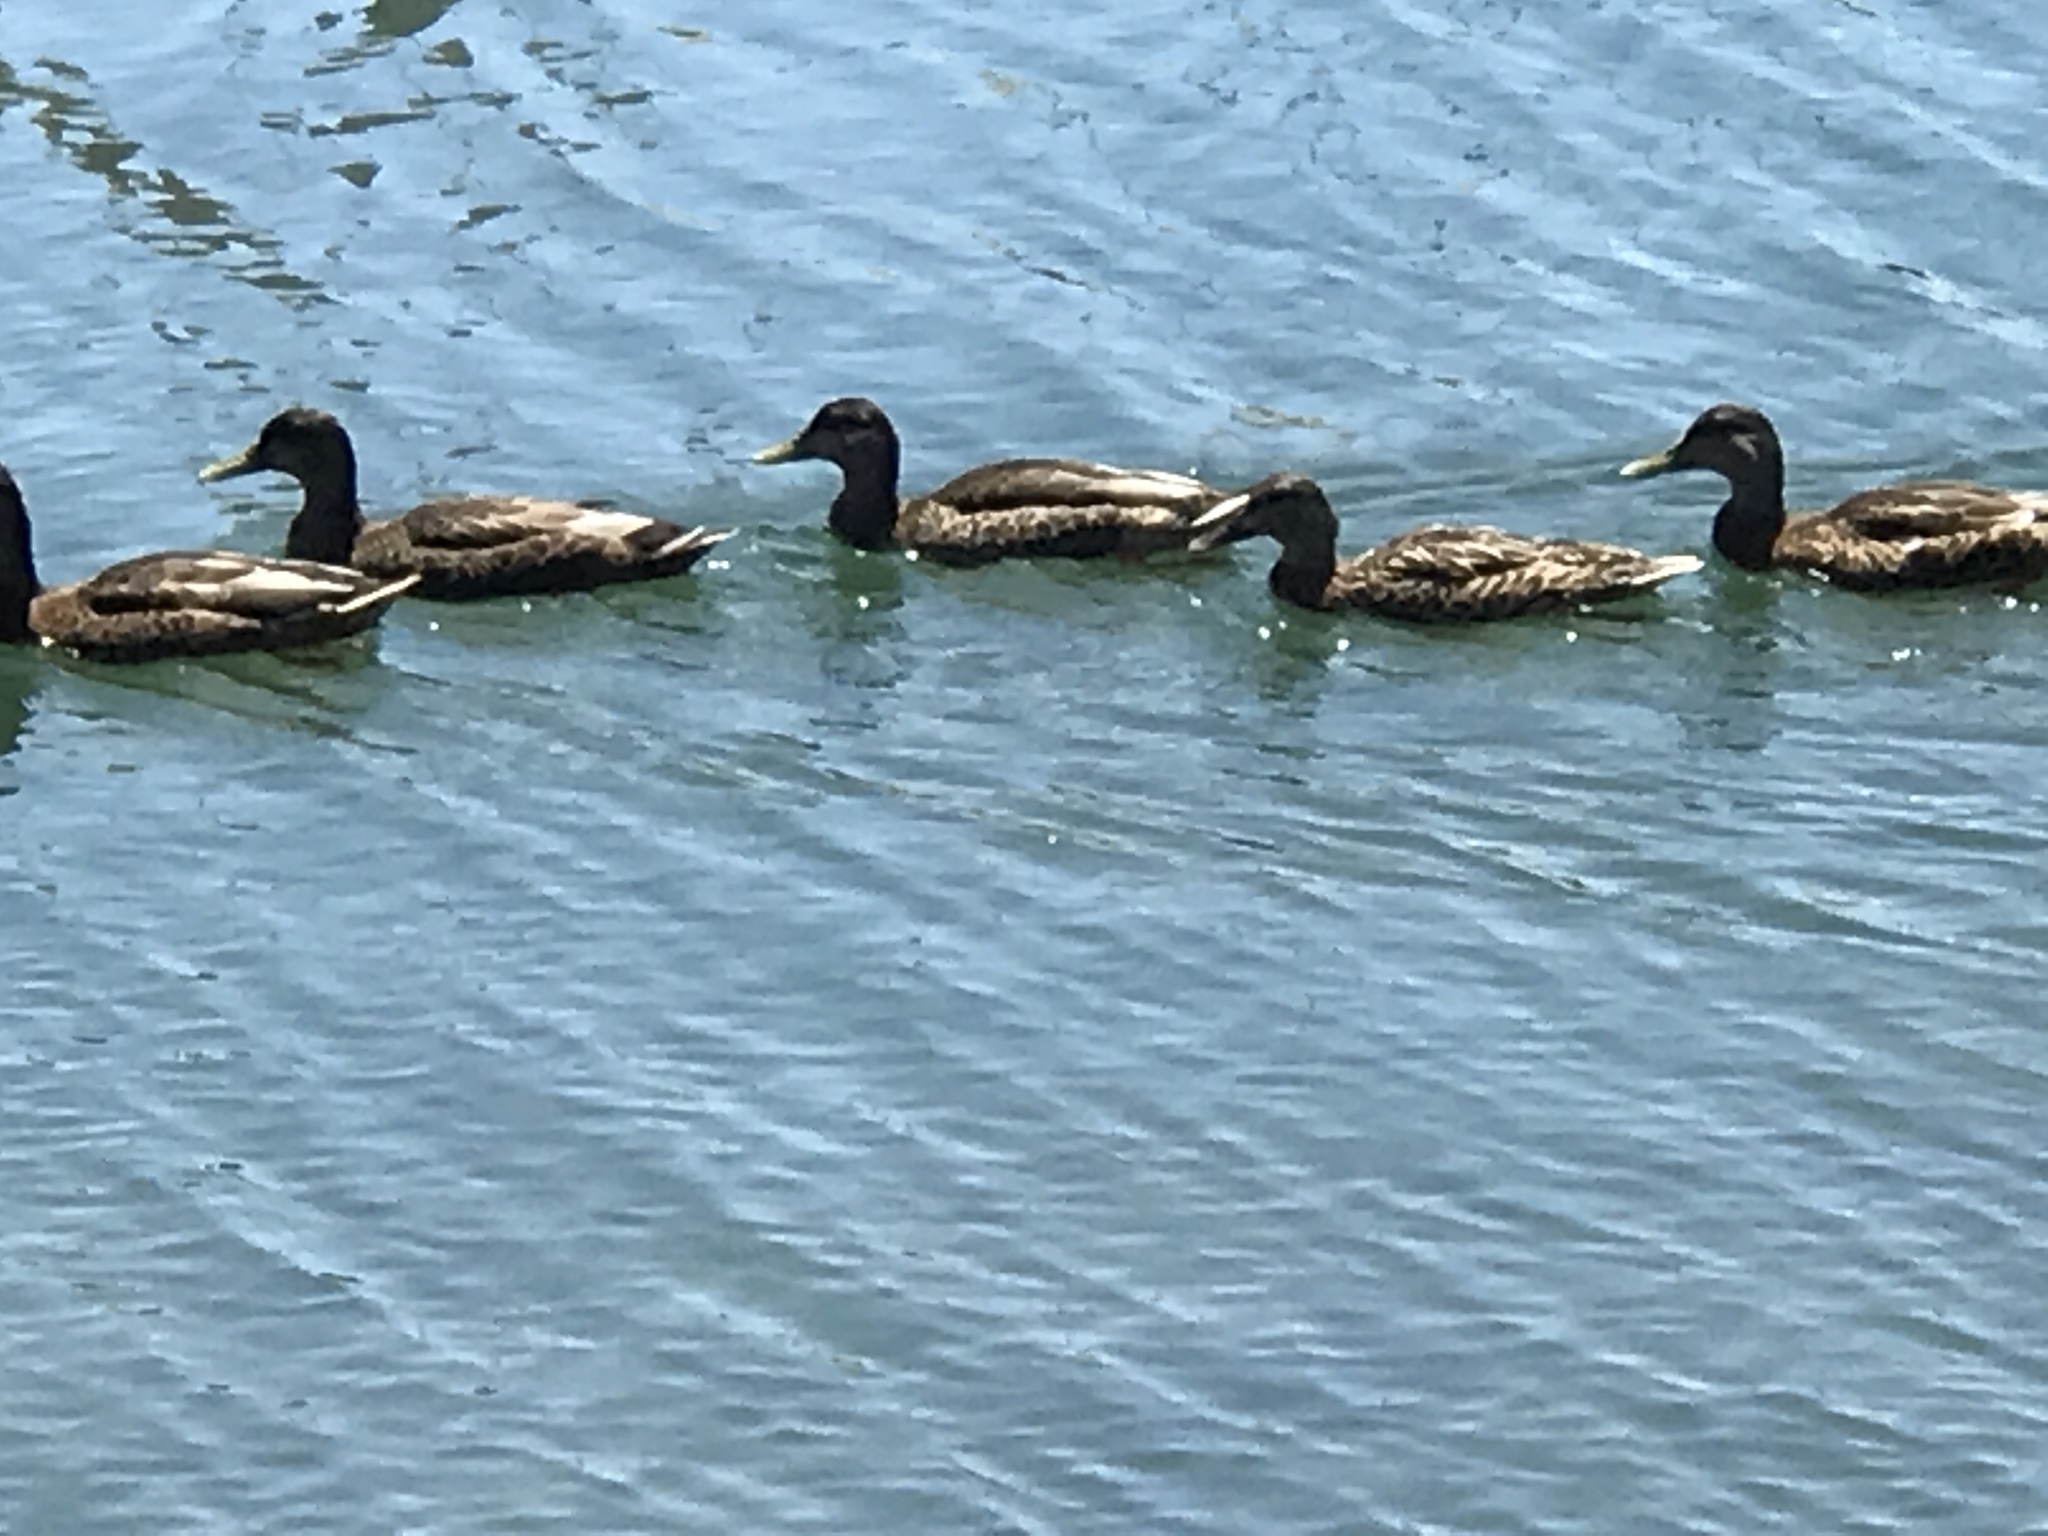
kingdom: Animalia
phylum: Chordata
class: Aves
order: Anseriformes
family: Anatidae
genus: Anas
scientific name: Anas platyrhynchos
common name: Mallard
